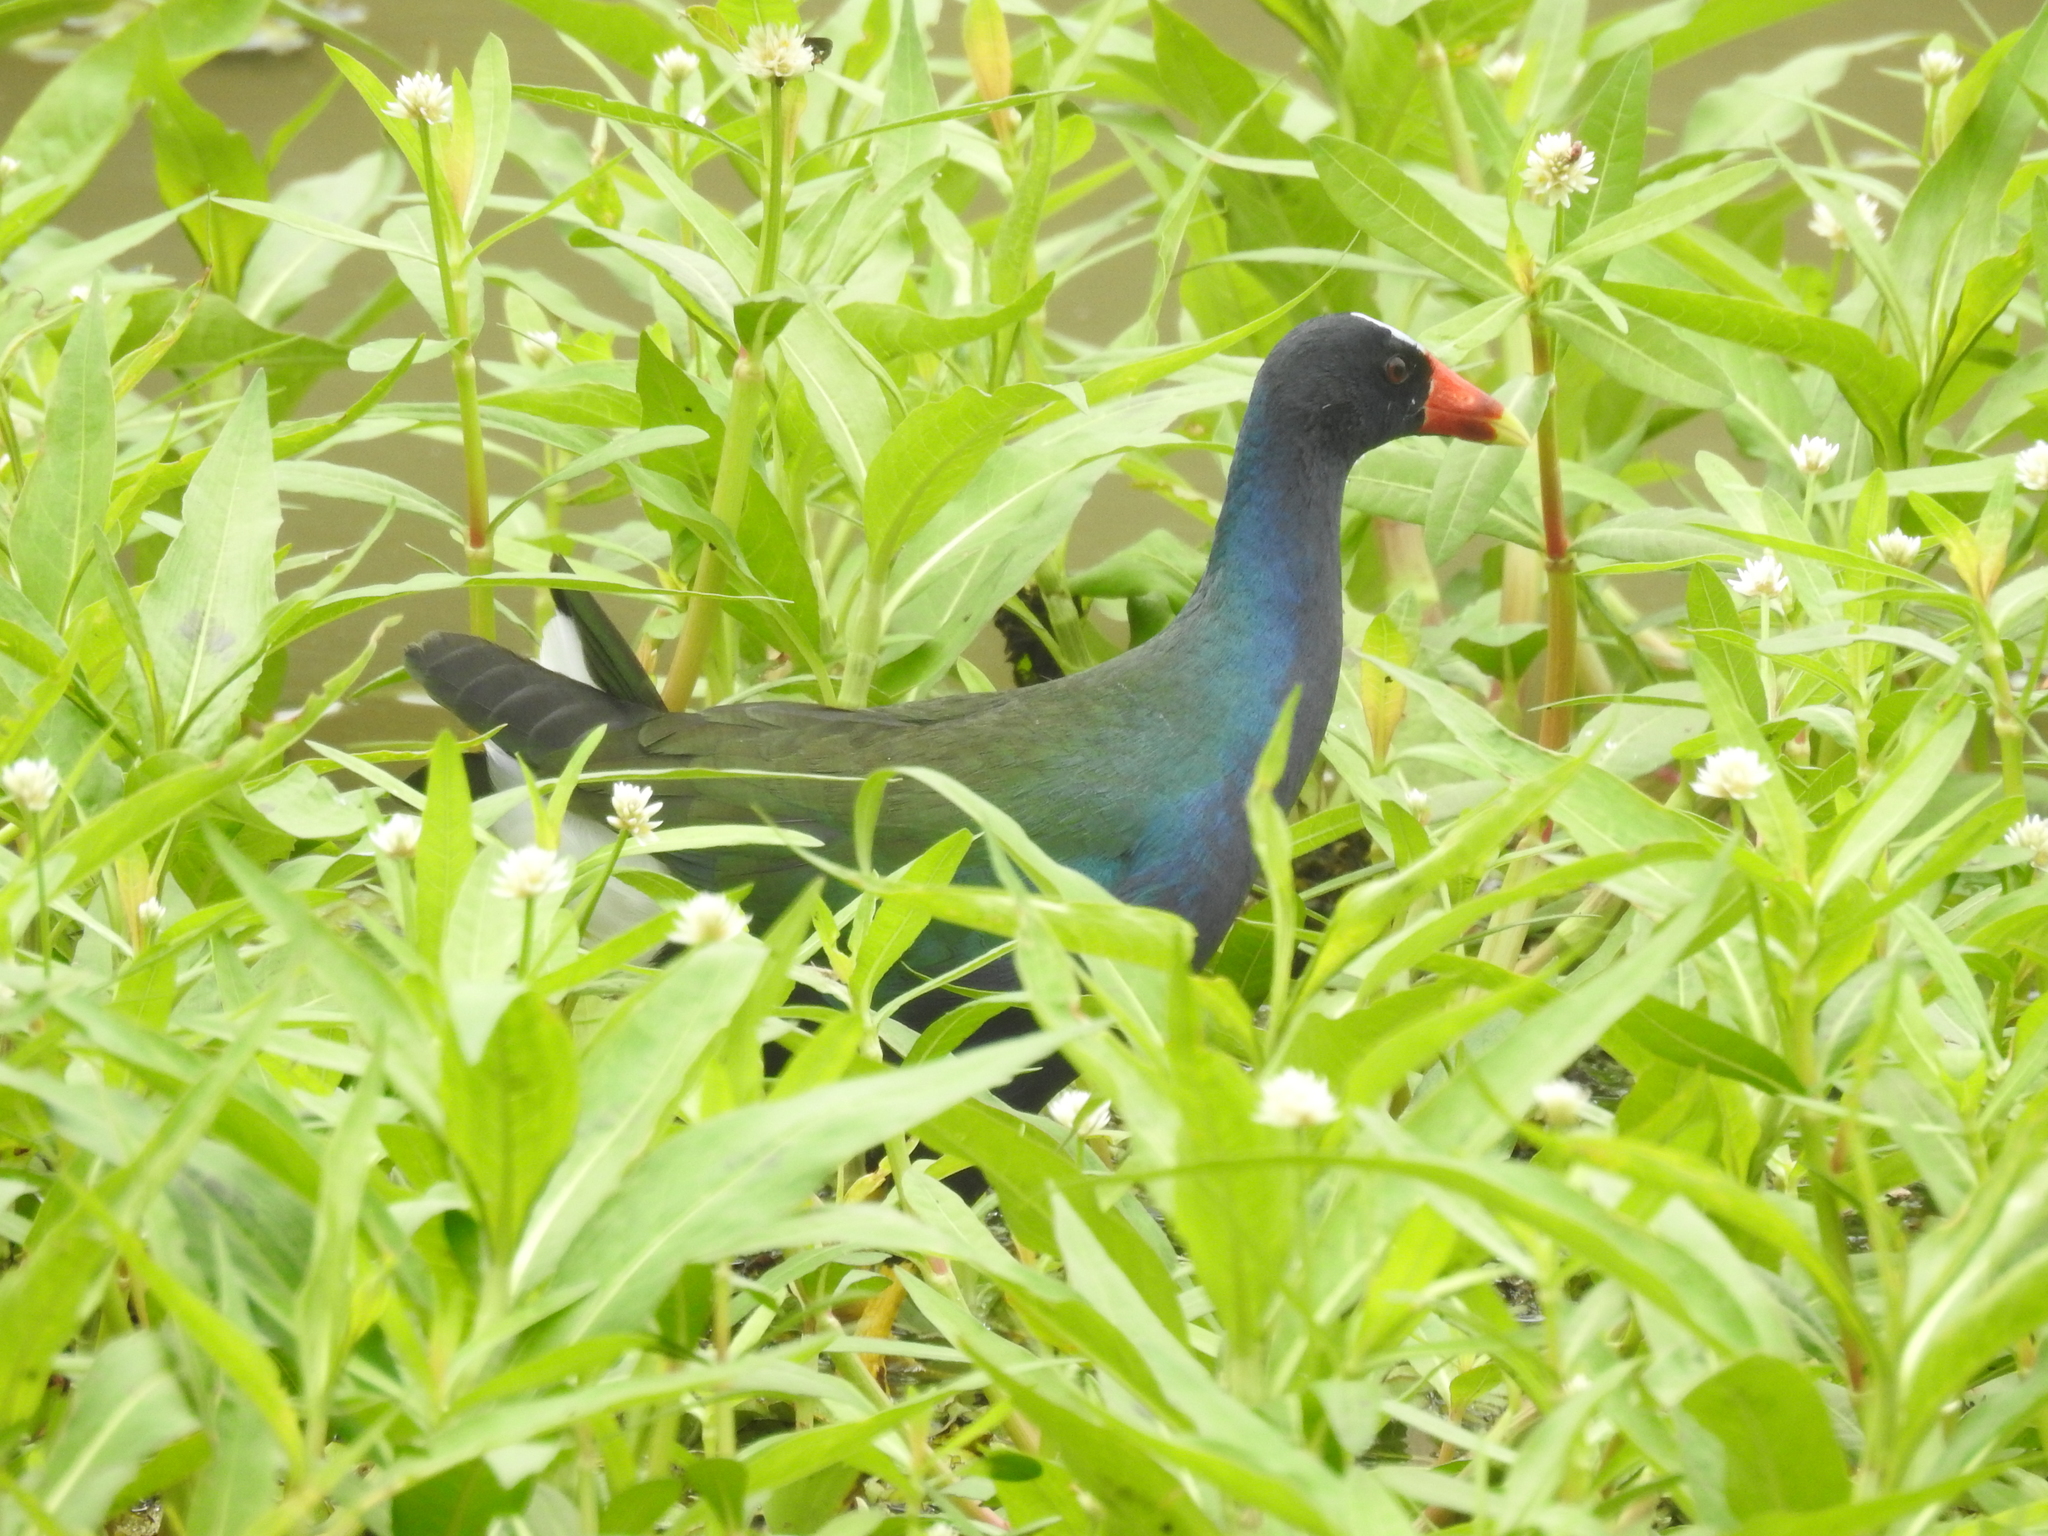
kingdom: Animalia
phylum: Chordata
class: Aves
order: Gruiformes
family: Rallidae
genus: Porphyrio
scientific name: Porphyrio martinica
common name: Purple gallinule
